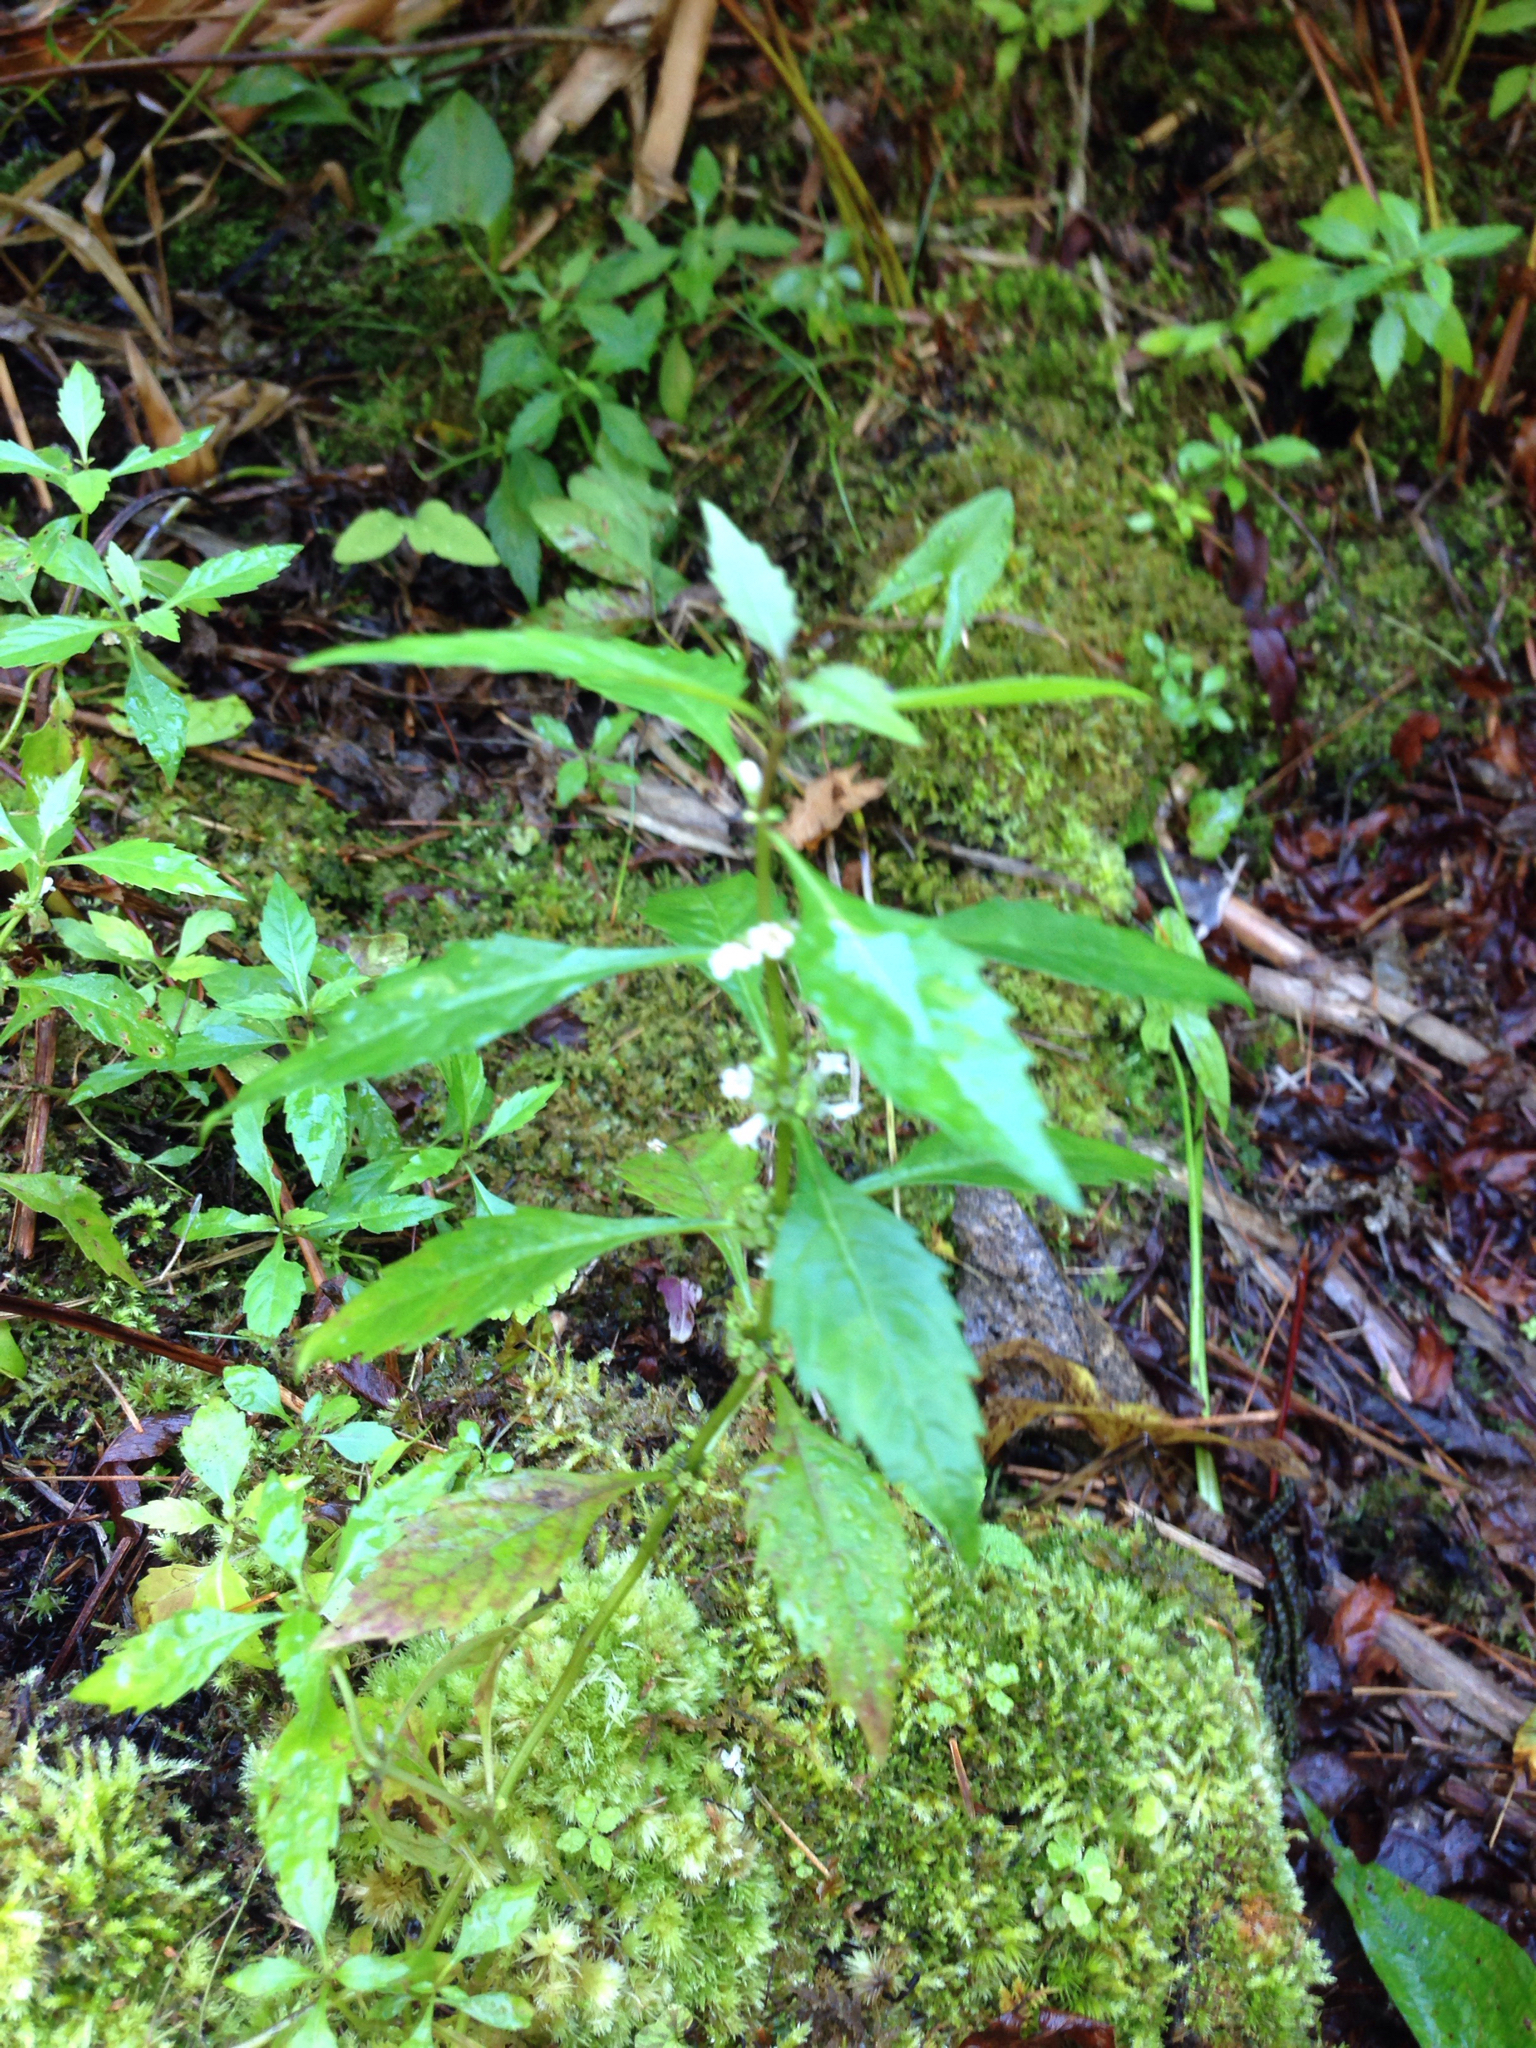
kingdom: Plantae
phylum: Tracheophyta
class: Magnoliopsida
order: Lamiales
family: Lamiaceae
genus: Lycopus
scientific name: Lycopus americanus
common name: American bugleweed
